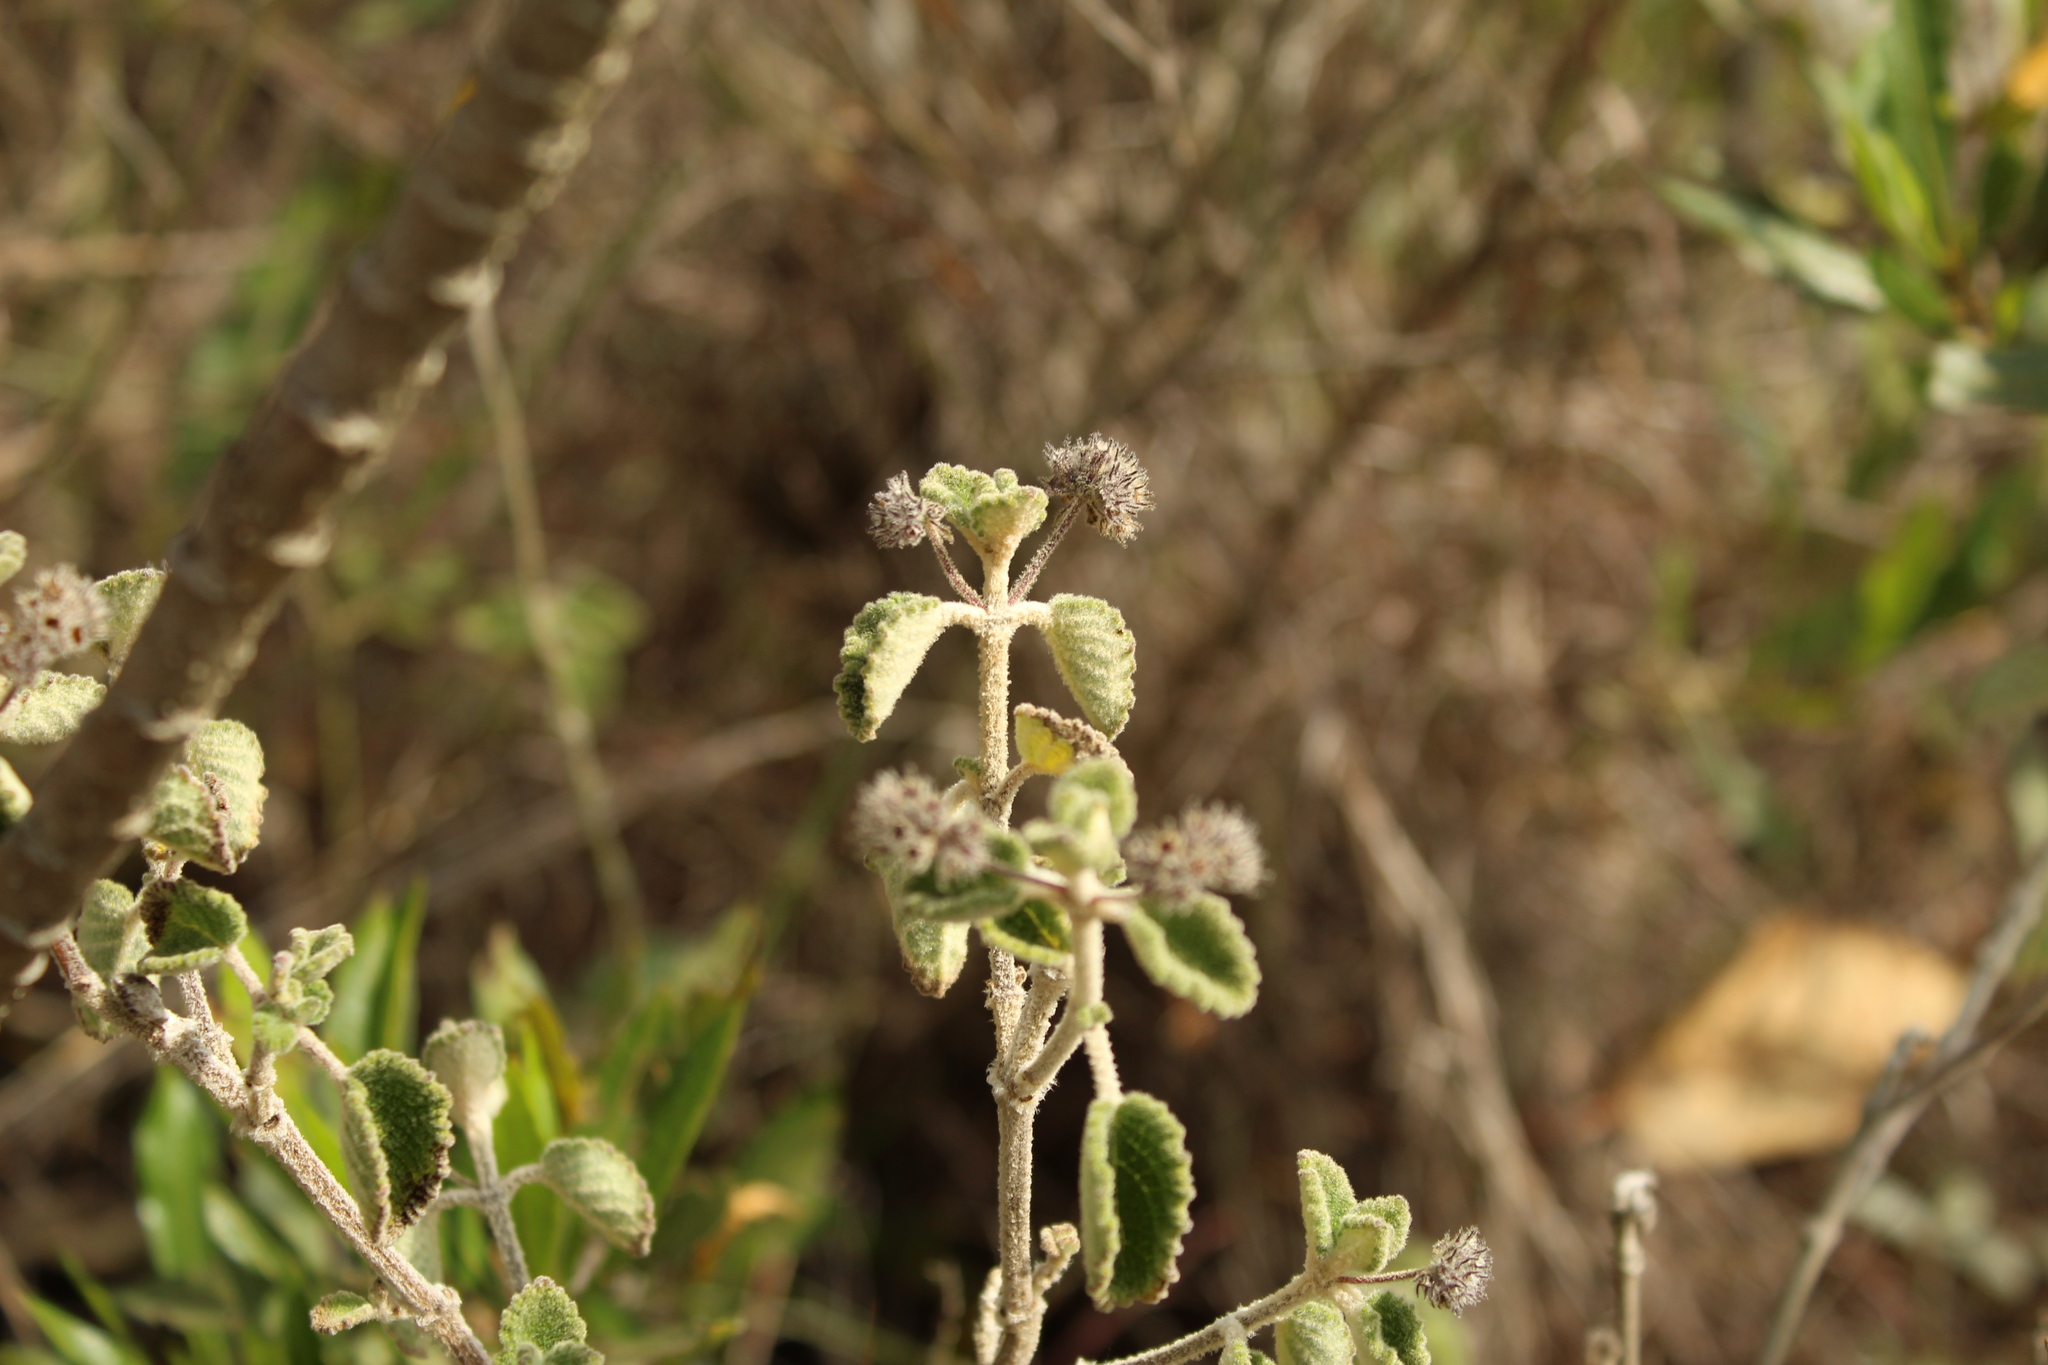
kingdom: Plantae
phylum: Tracheophyta
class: Magnoliopsida
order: Lamiales
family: Lamiaceae
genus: Mesosphaerum
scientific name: Mesosphaerum perbullatum
